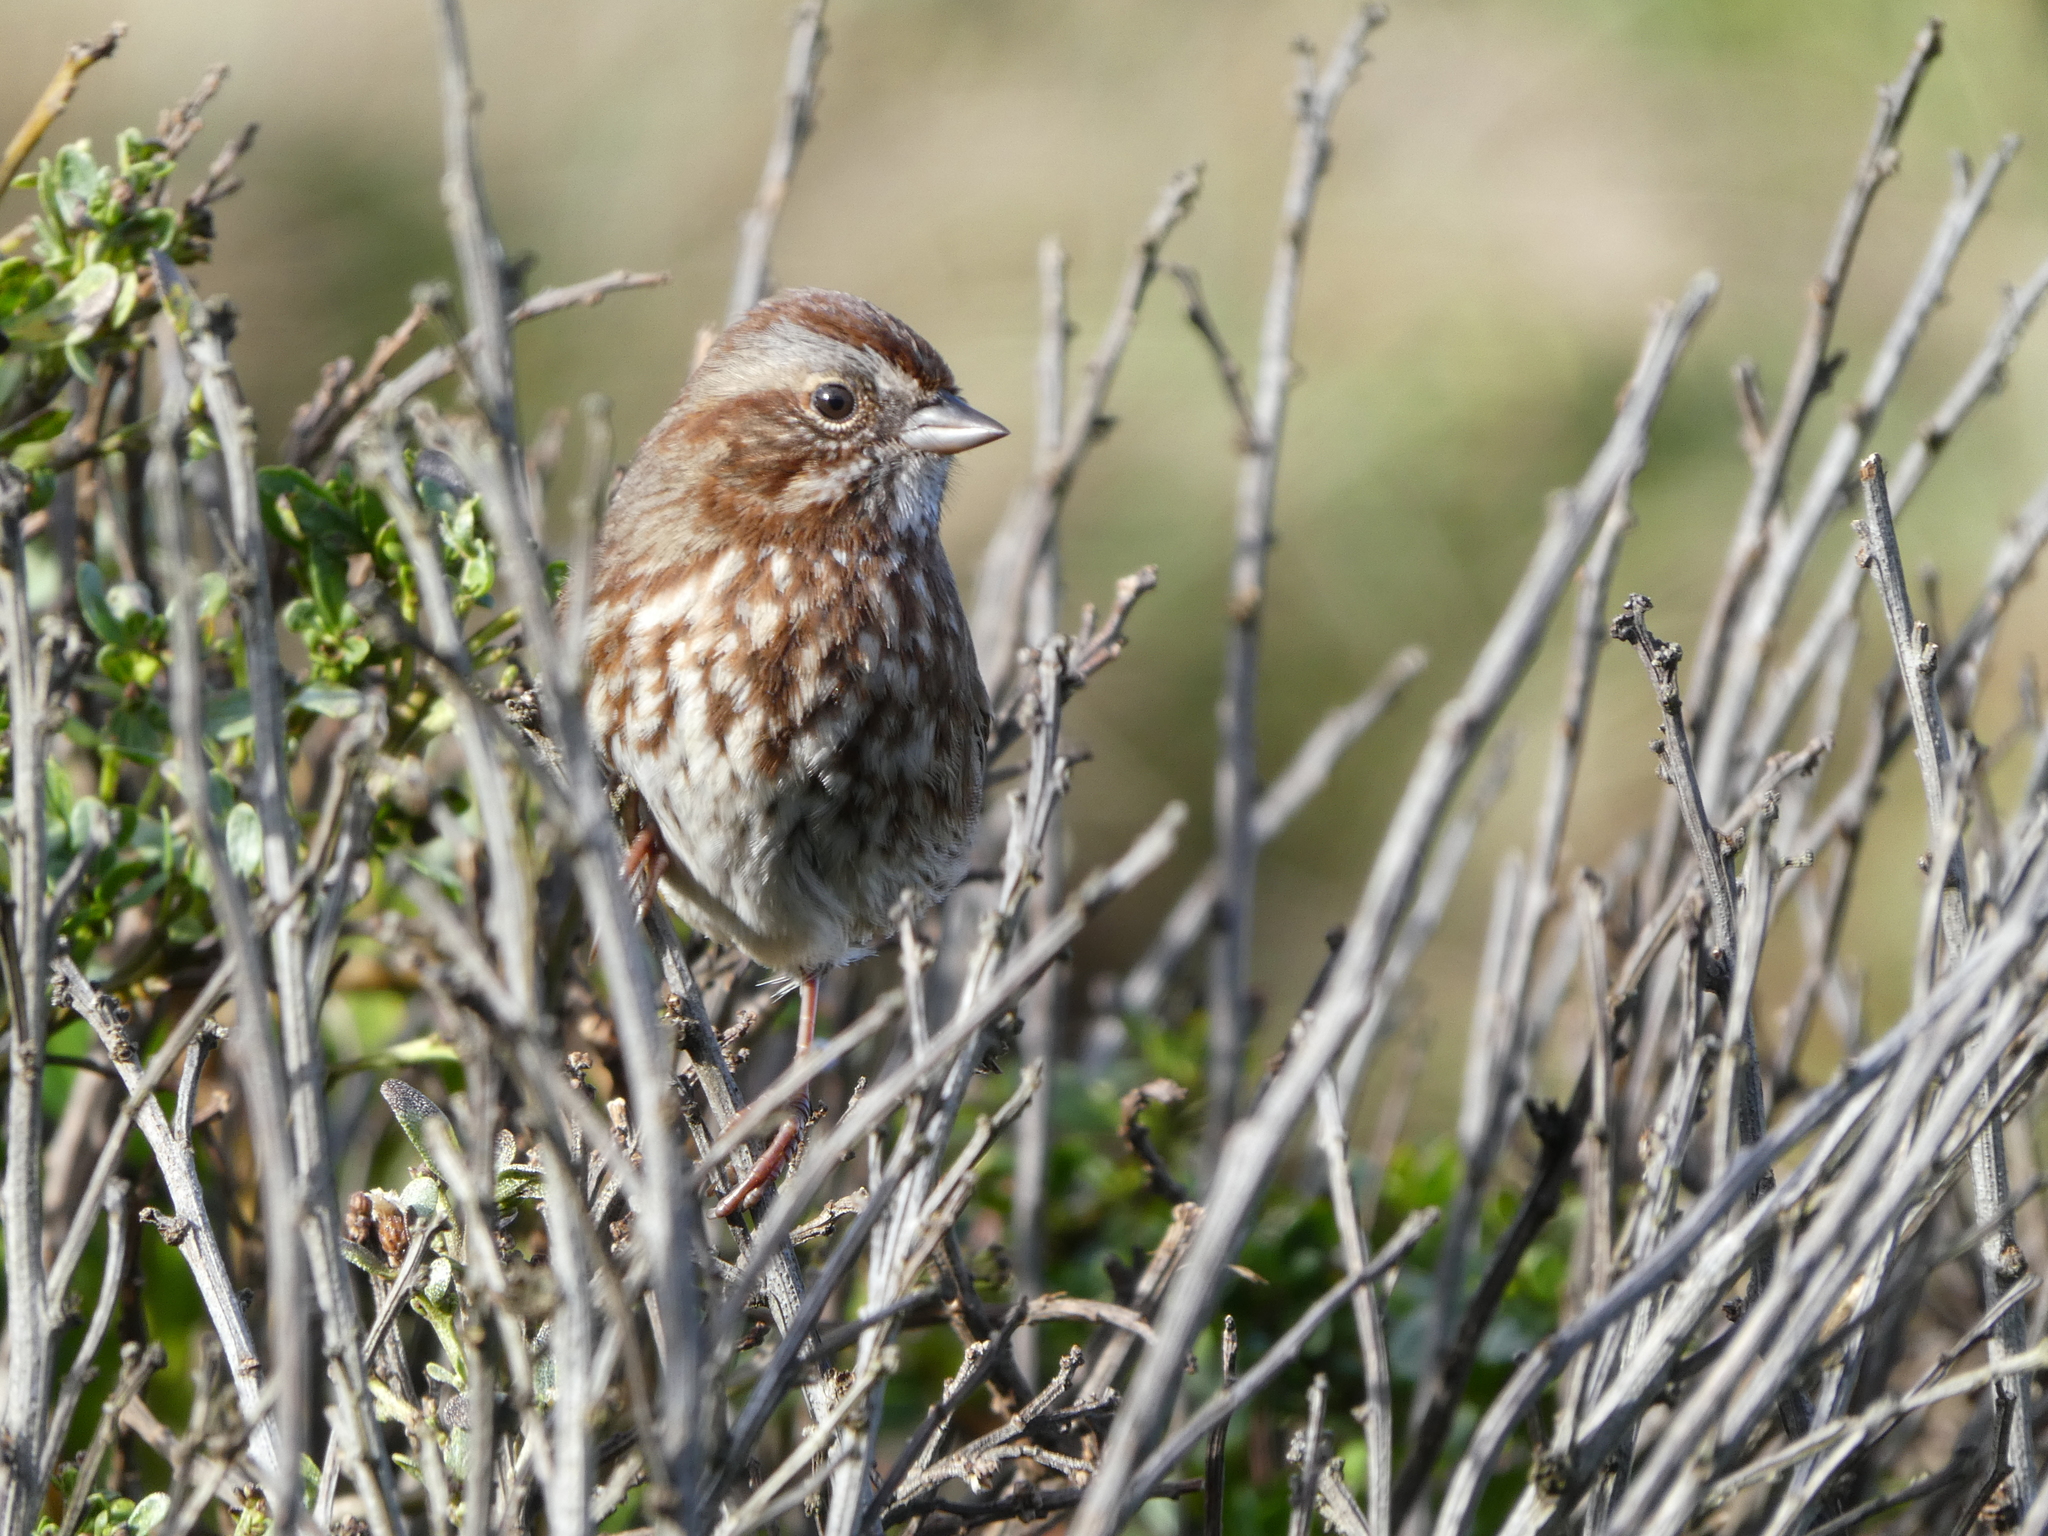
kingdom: Animalia
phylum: Chordata
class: Aves
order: Passeriformes
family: Passerellidae
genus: Melospiza
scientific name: Melospiza melodia
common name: Song sparrow
